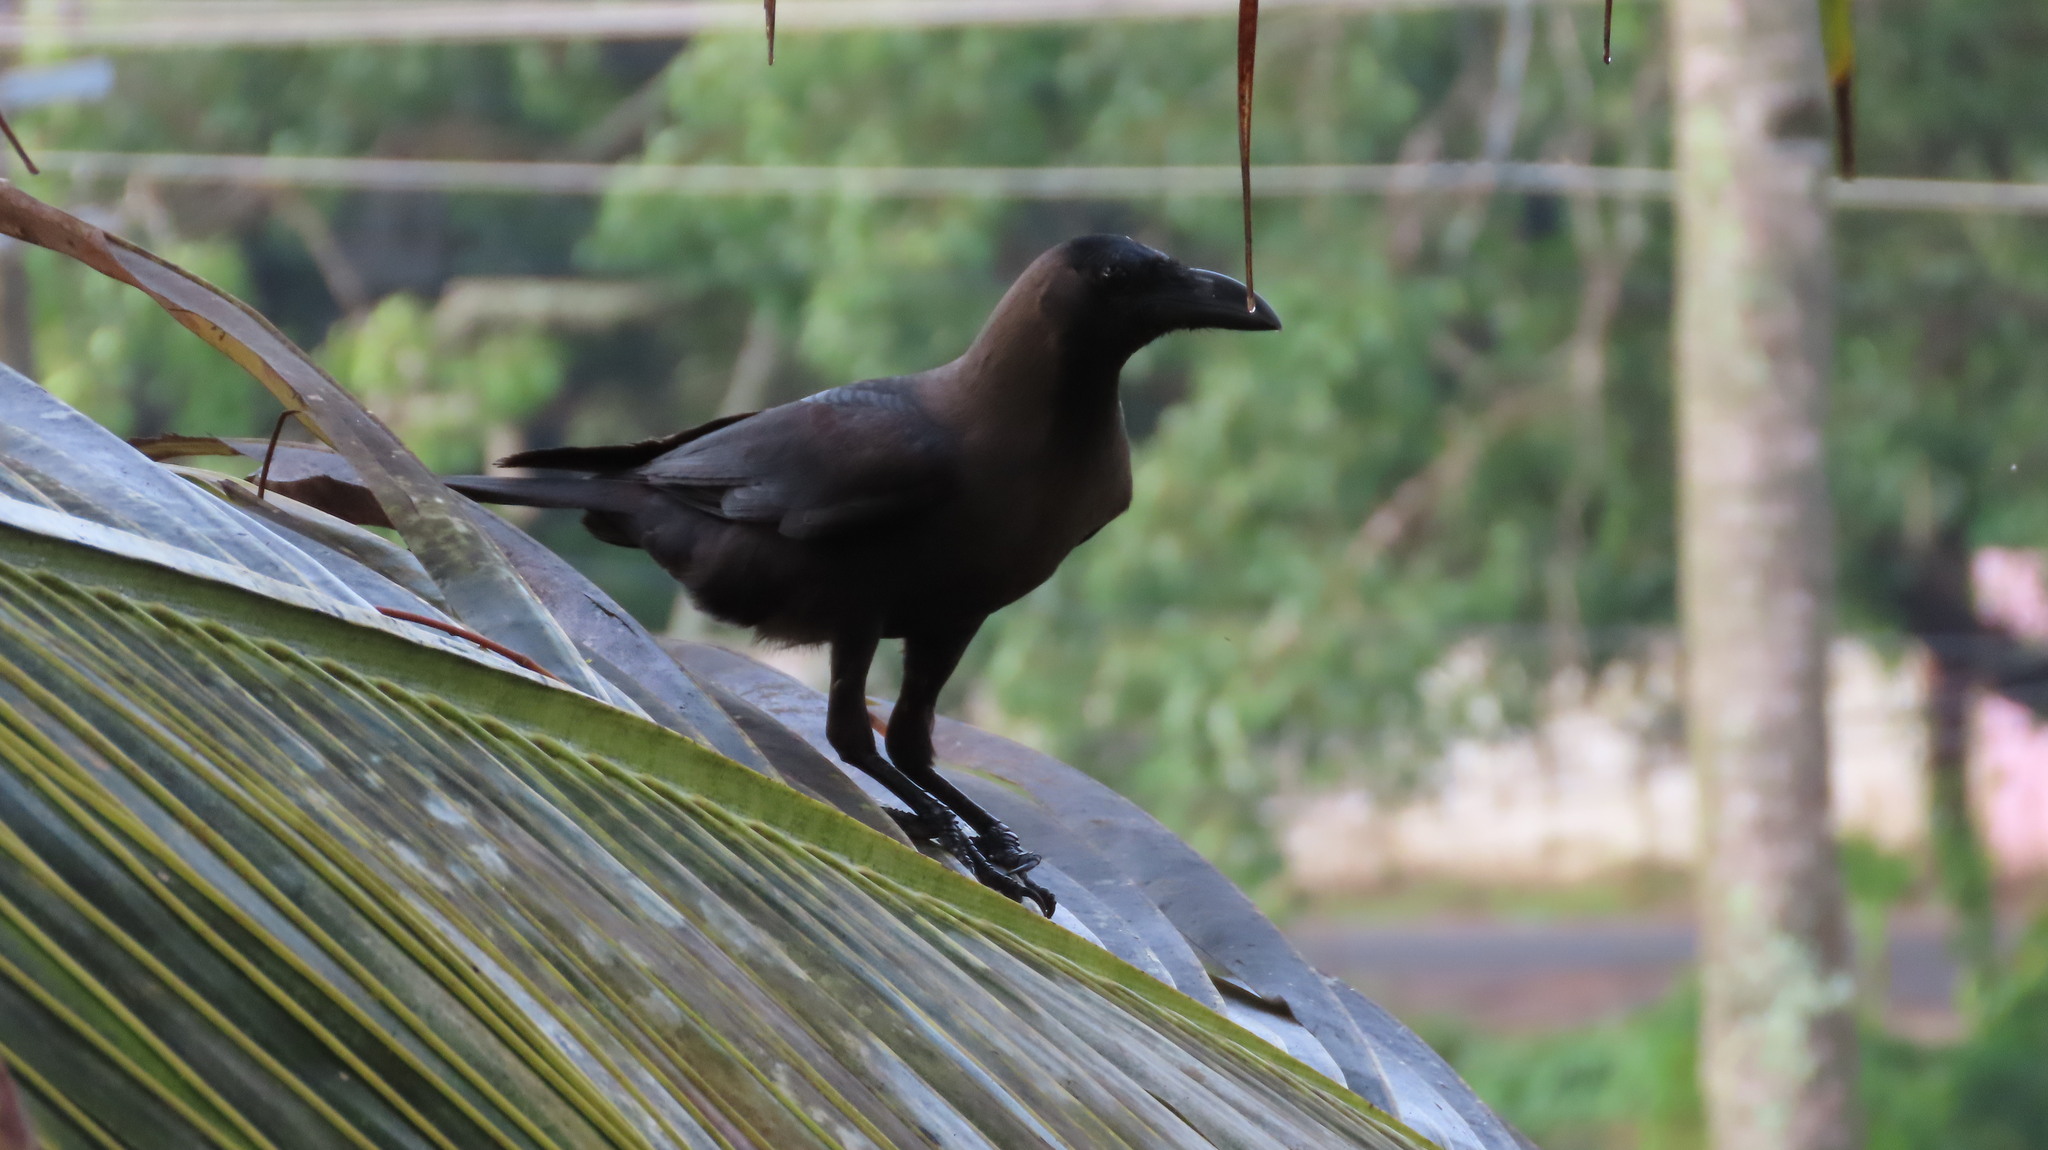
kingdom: Animalia
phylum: Chordata
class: Aves
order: Passeriformes
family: Corvidae
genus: Corvus
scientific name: Corvus splendens
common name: House crow
